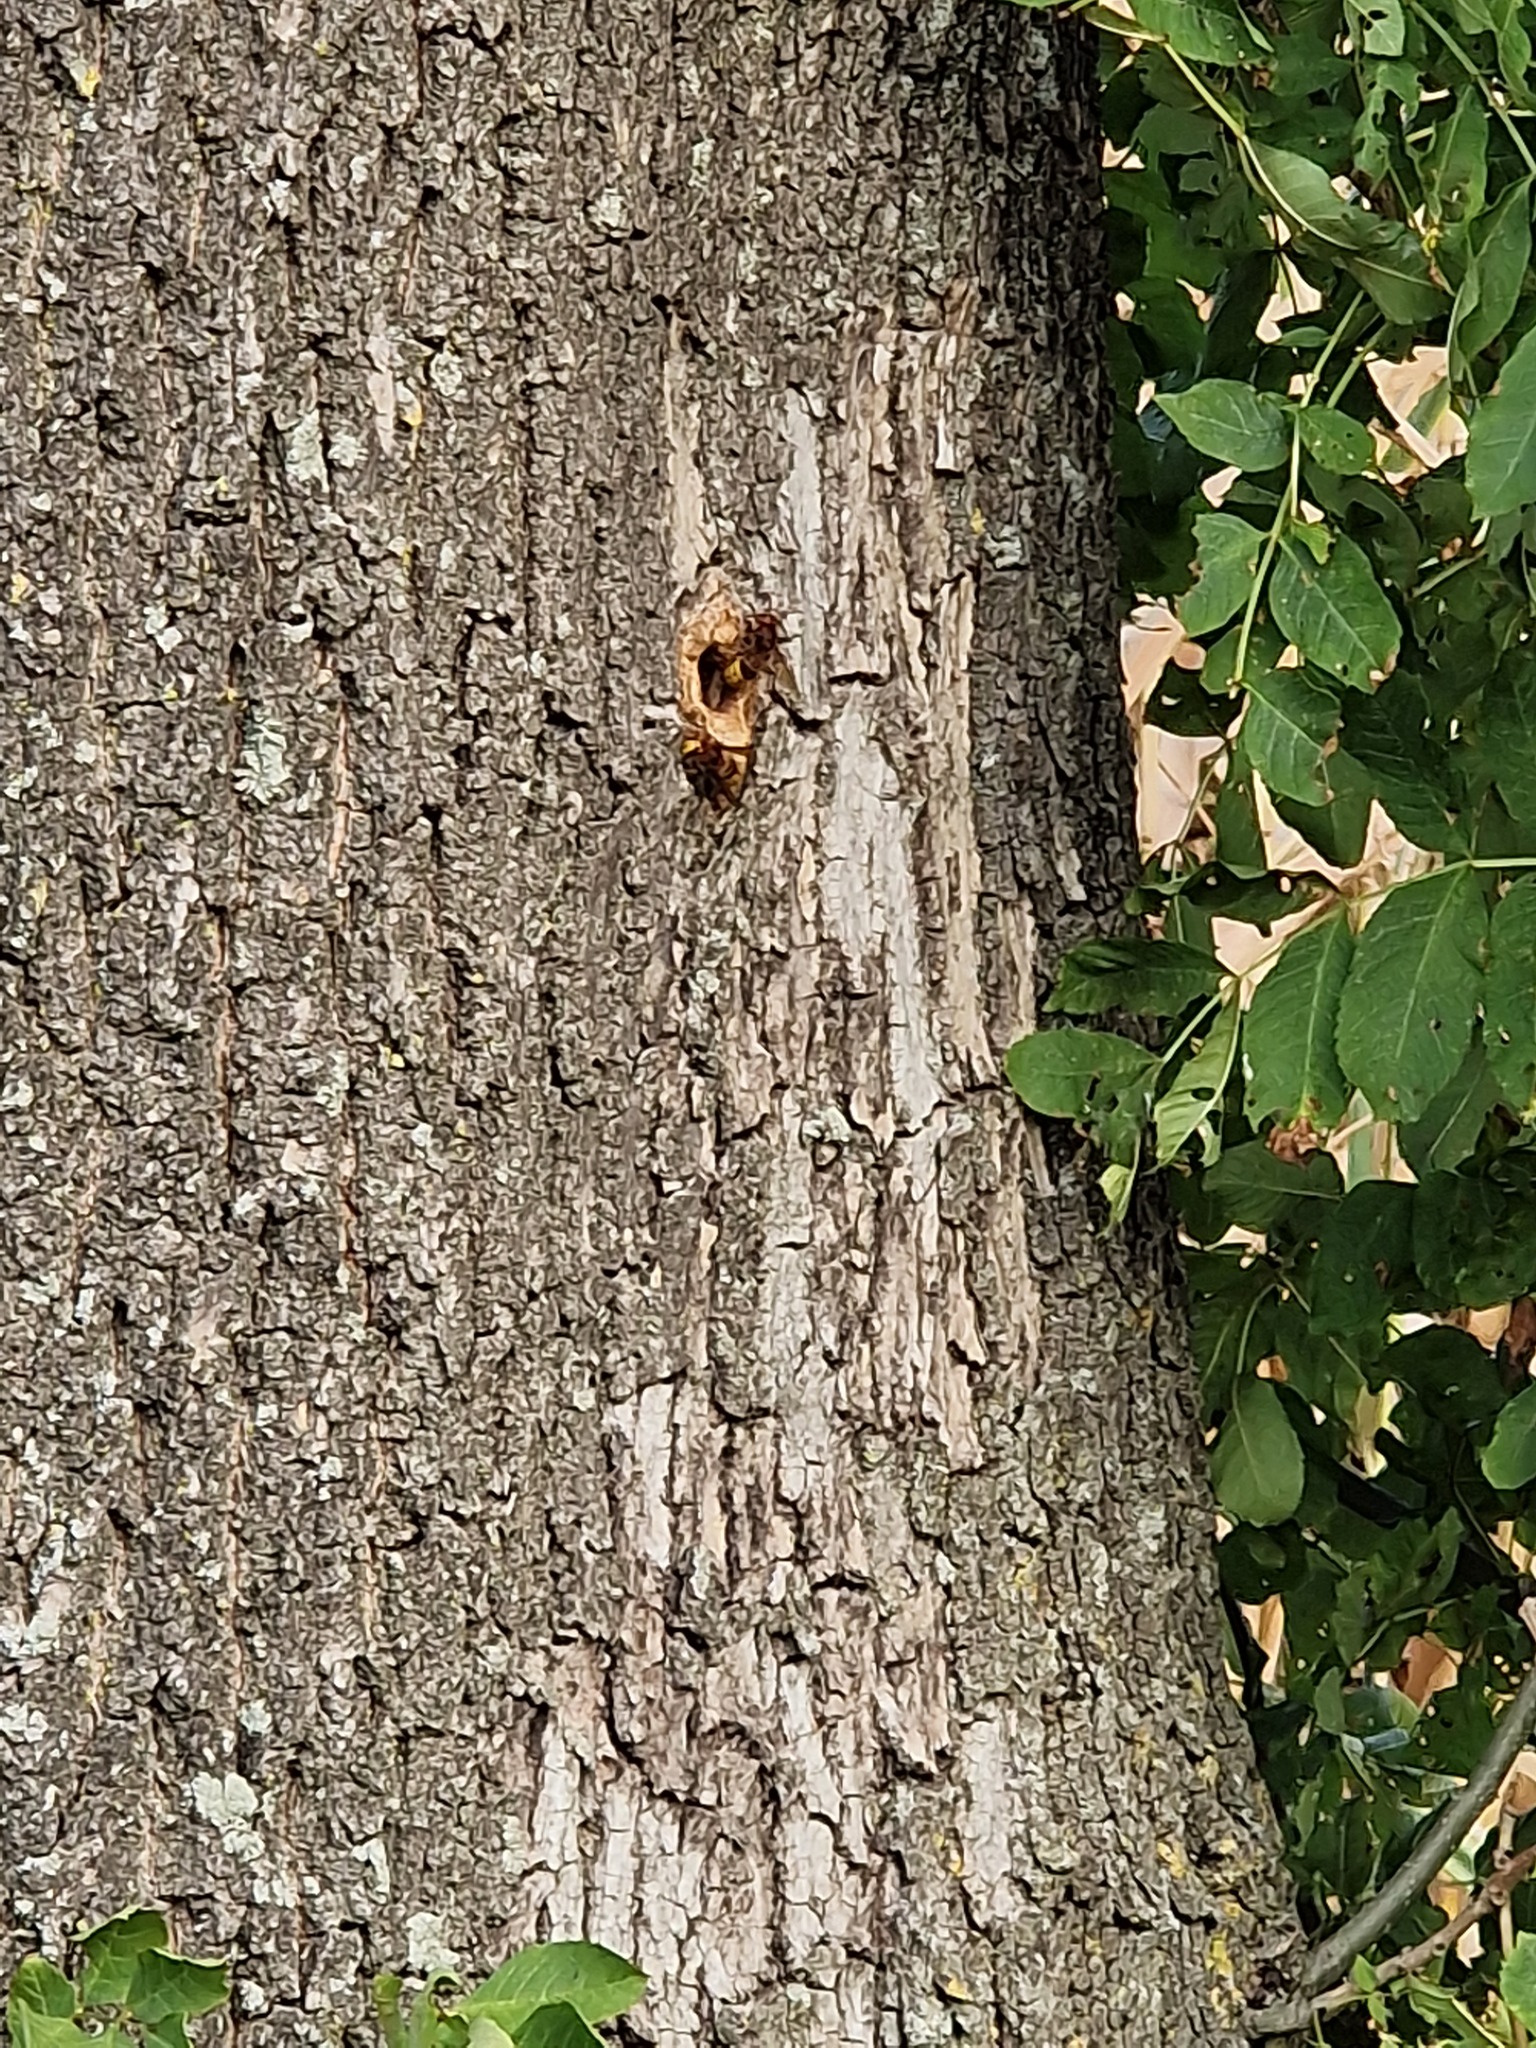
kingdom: Animalia
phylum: Arthropoda
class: Insecta
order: Hymenoptera
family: Vespidae
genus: Vespa
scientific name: Vespa crabro
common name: Hornet
